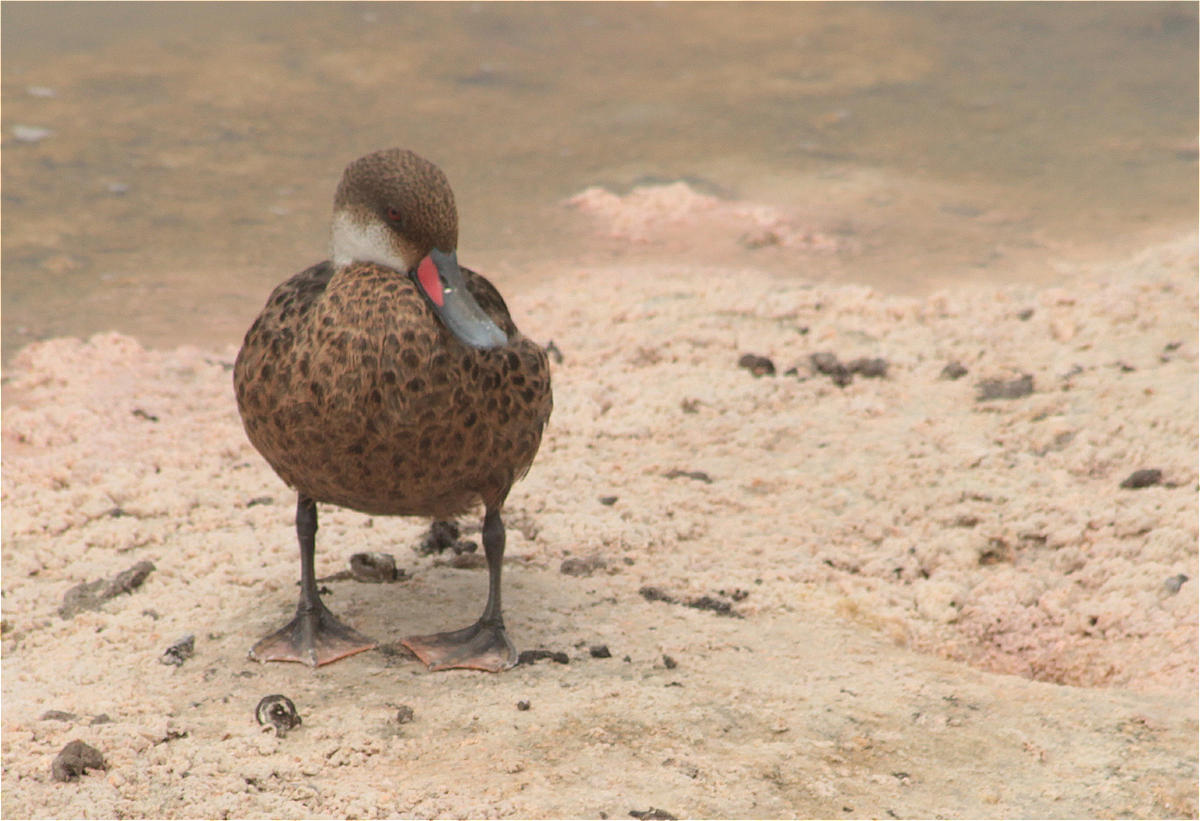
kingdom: Animalia
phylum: Chordata
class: Aves
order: Anseriformes
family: Anatidae
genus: Anas
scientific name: Anas bahamensis
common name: White-cheeked pintail
